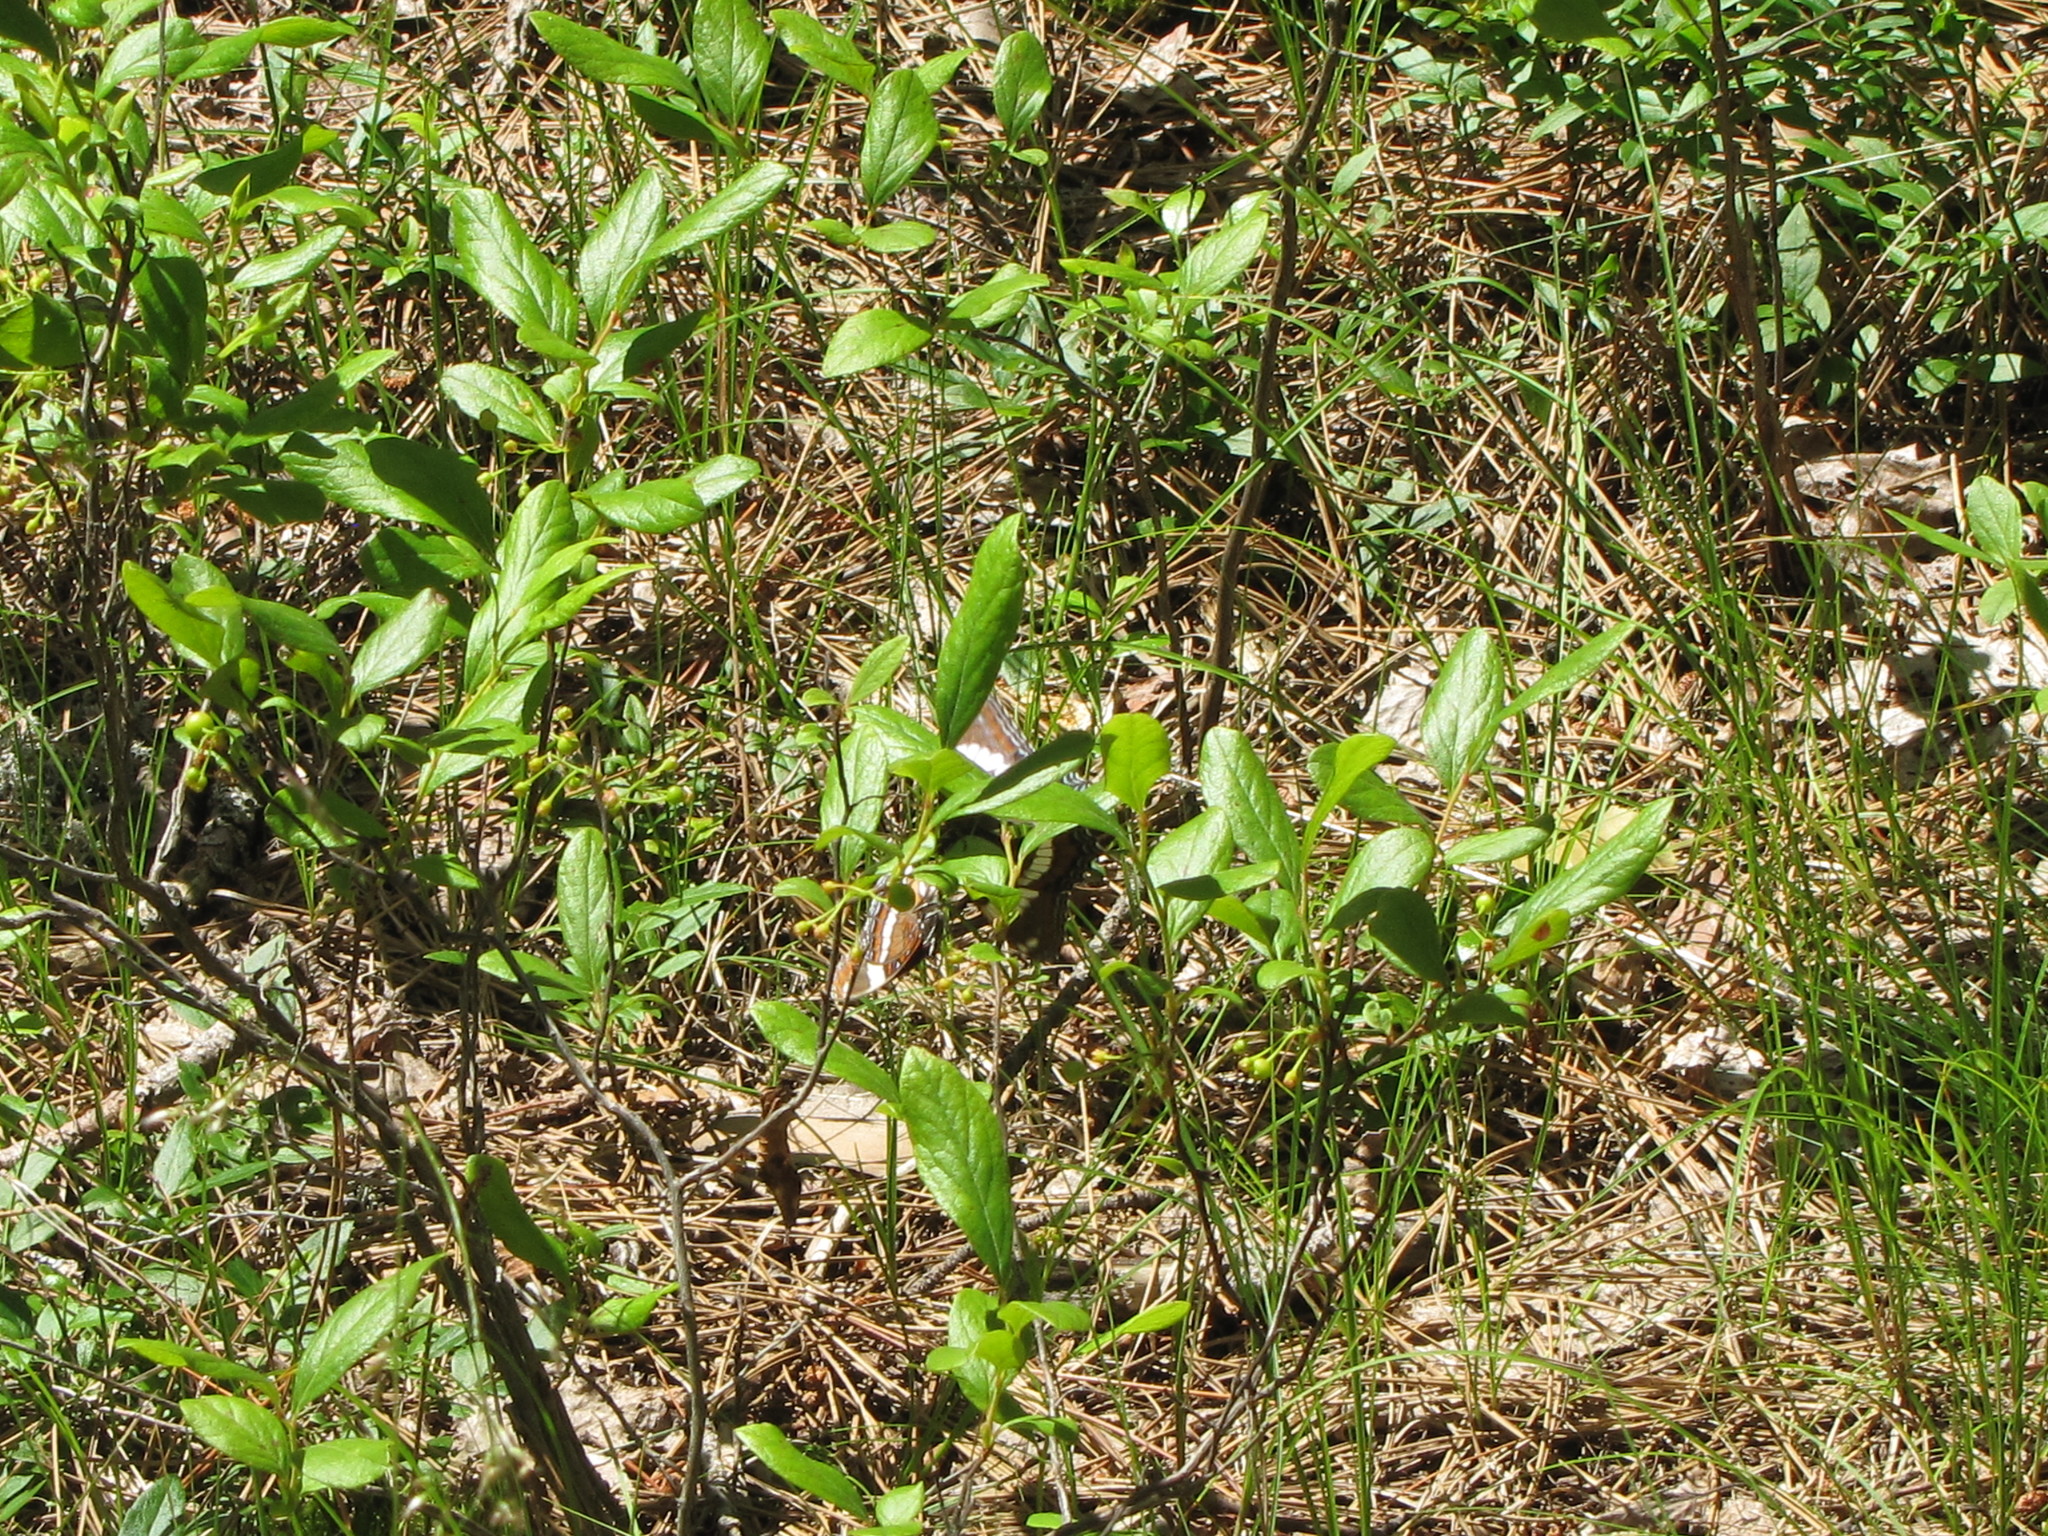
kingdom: Animalia
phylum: Arthropoda
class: Insecta
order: Lepidoptera
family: Nymphalidae
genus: Limenitis
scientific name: Limenitis arthemis
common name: Red-spotted admiral
